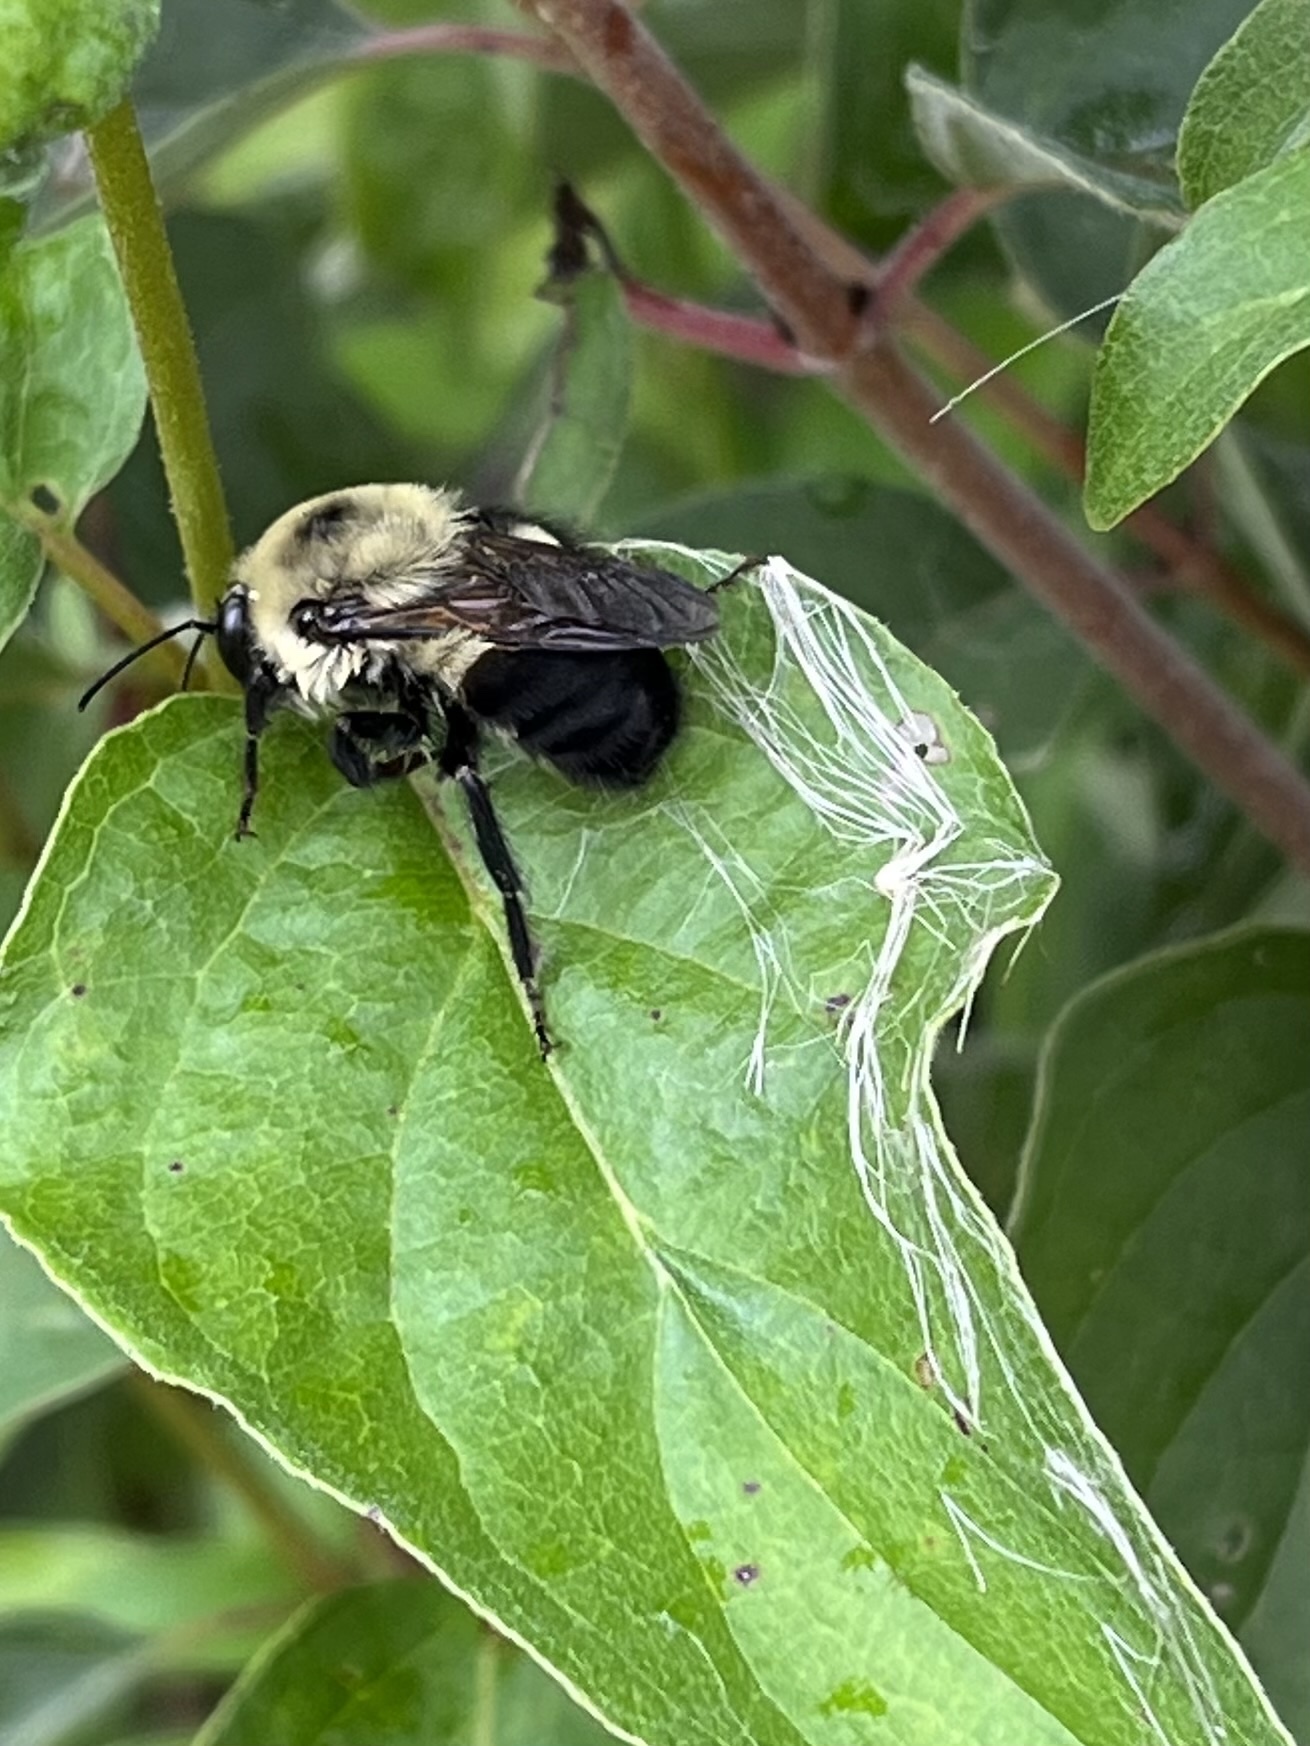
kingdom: Animalia
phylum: Arthropoda
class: Insecta
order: Hymenoptera
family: Apidae
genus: Bombus
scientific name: Bombus griseocollis
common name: Brown-belted bumble bee
